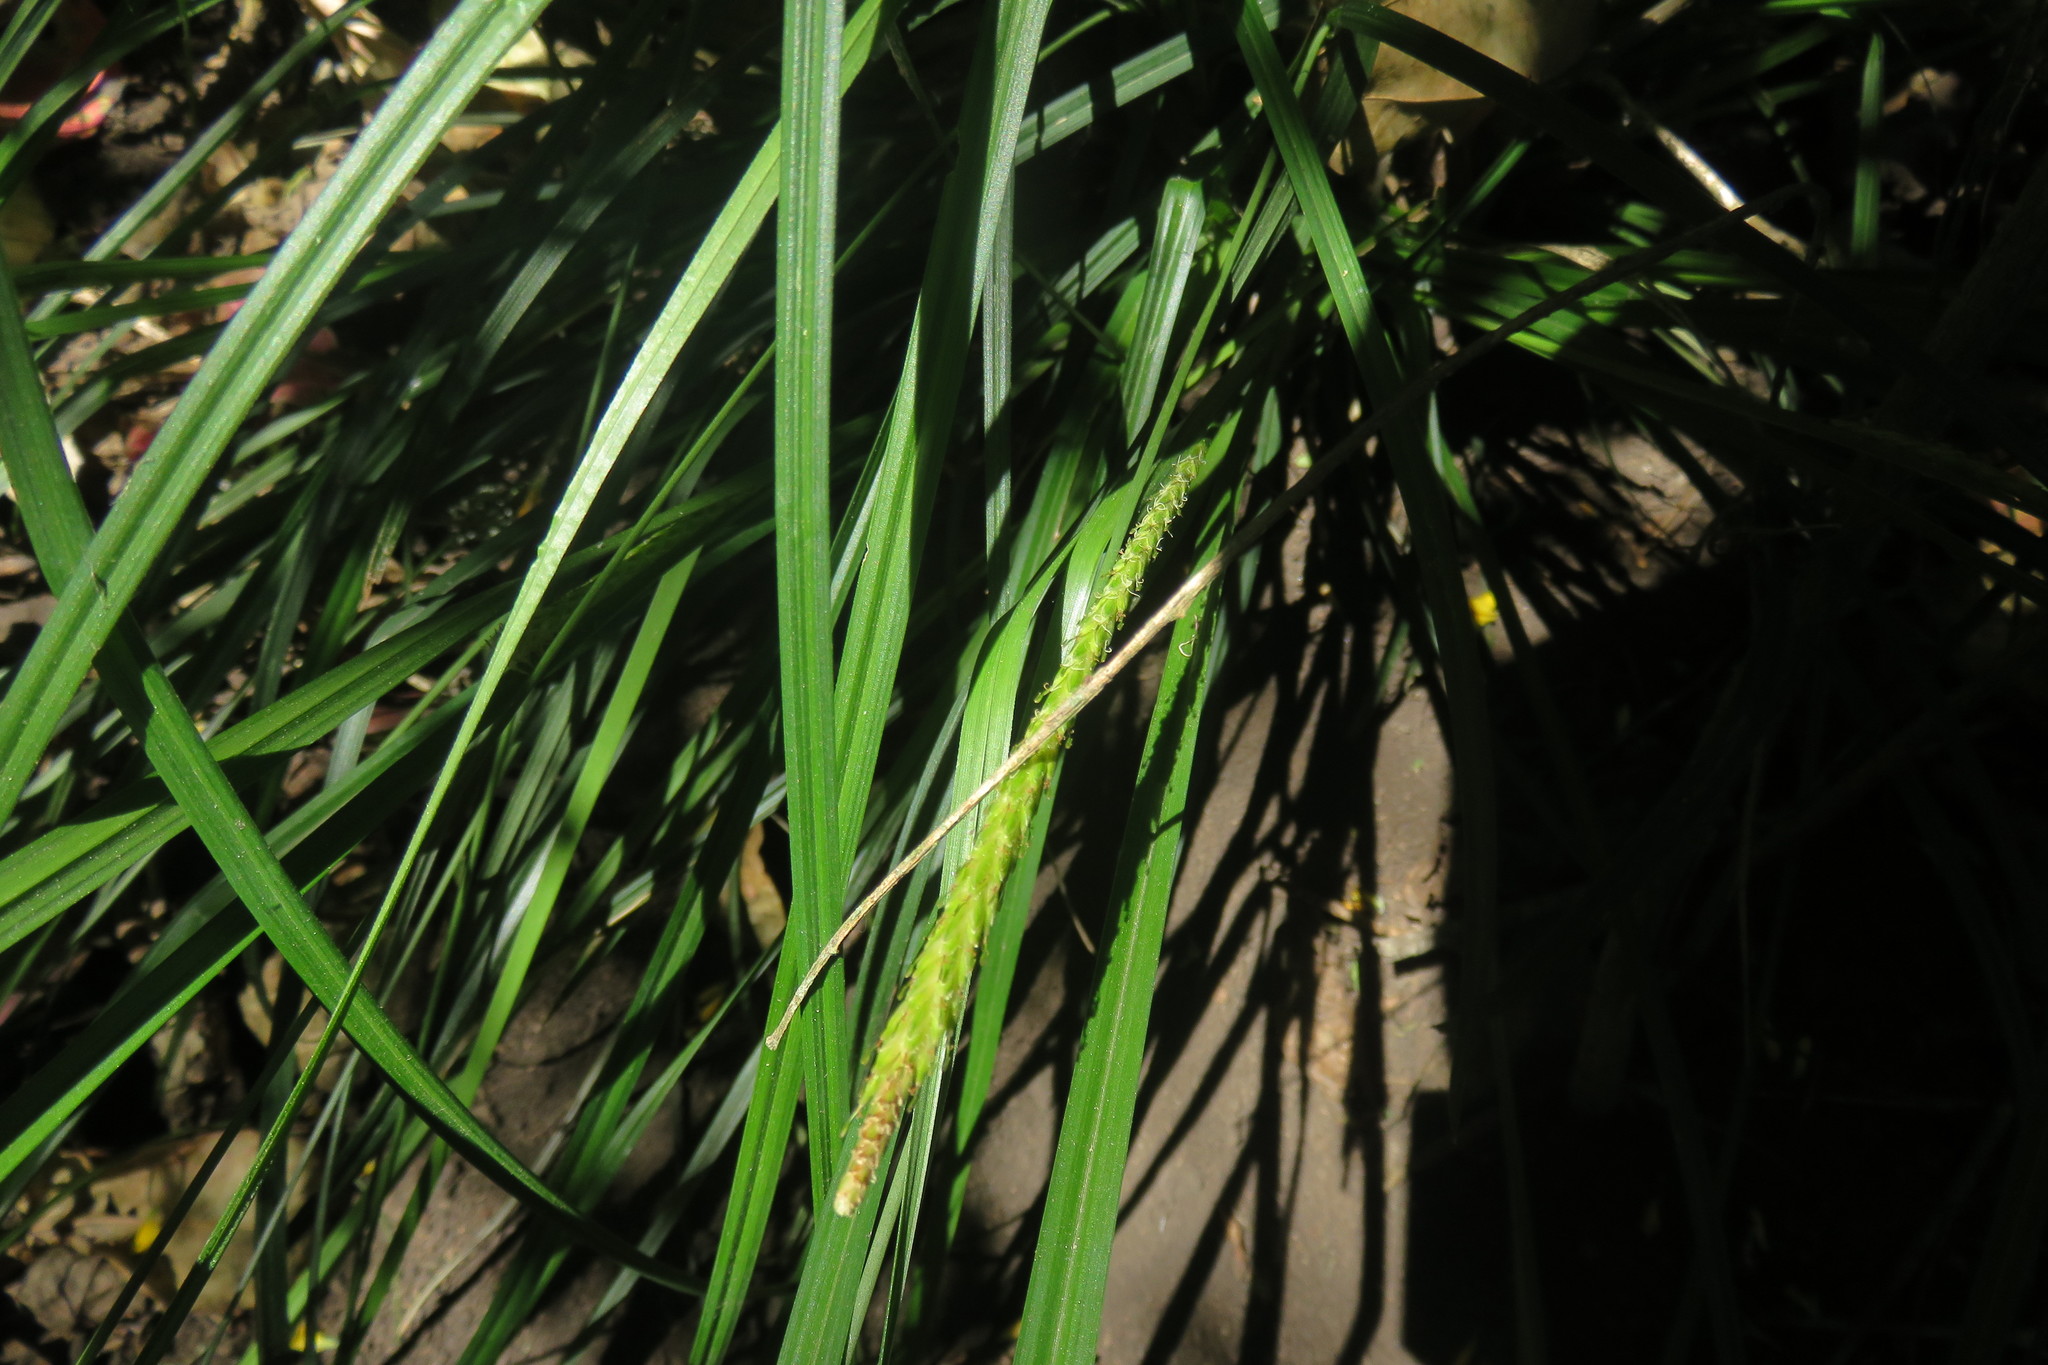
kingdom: Plantae
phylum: Tracheophyta
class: Liliopsida
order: Poales
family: Cyperaceae
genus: Carex
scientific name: Carex phleoides
